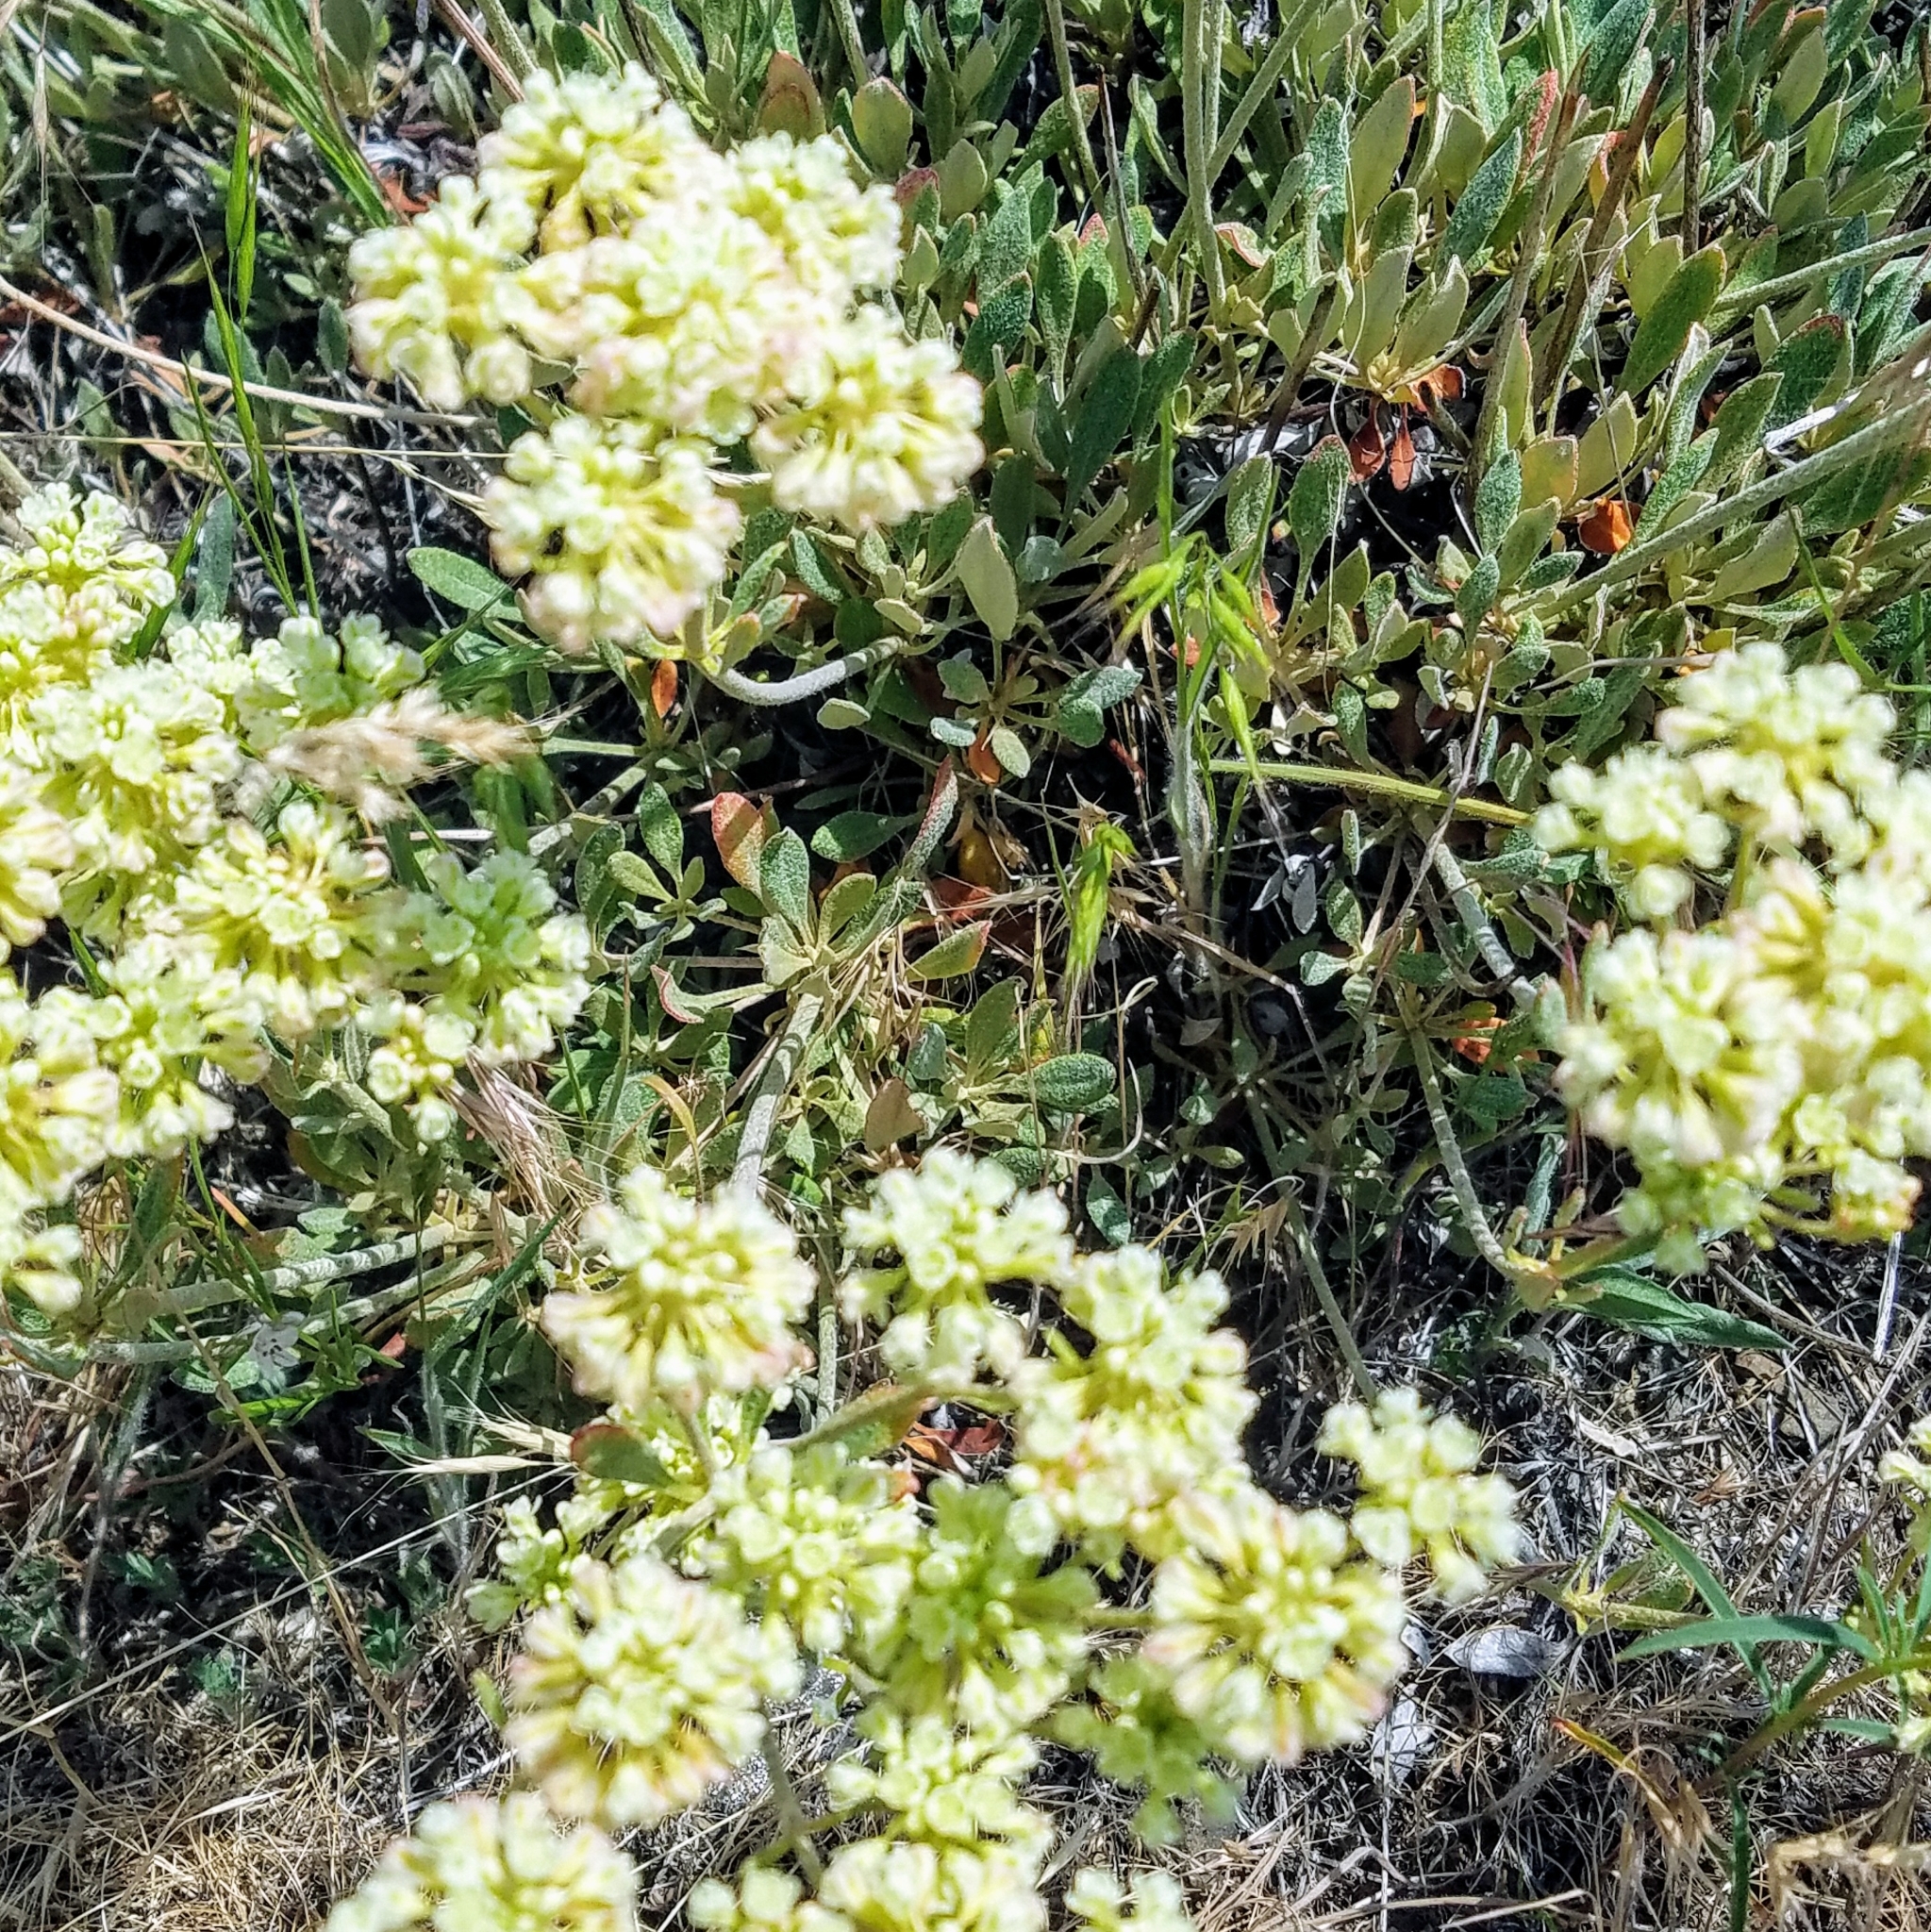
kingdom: Plantae
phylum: Tracheophyta
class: Magnoliopsida
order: Caryophyllales
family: Polygonaceae
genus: Eriogonum
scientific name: Eriogonum heracleoides
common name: Wyeth's buckwheat
